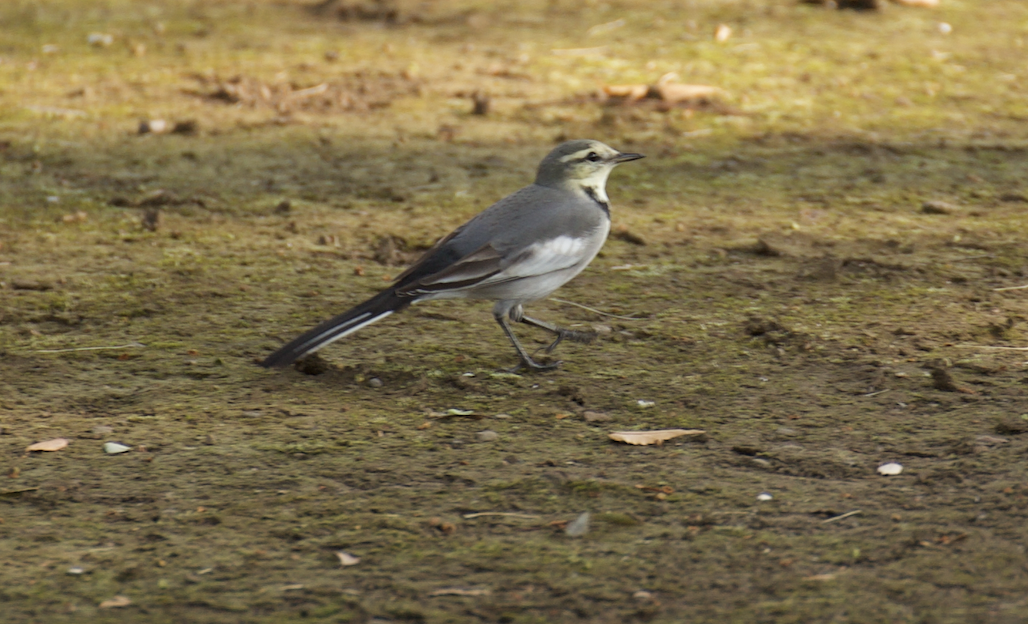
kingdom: Animalia
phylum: Chordata
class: Aves
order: Passeriformes
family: Motacillidae
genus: Motacilla
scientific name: Motacilla alba
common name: White wagtail
